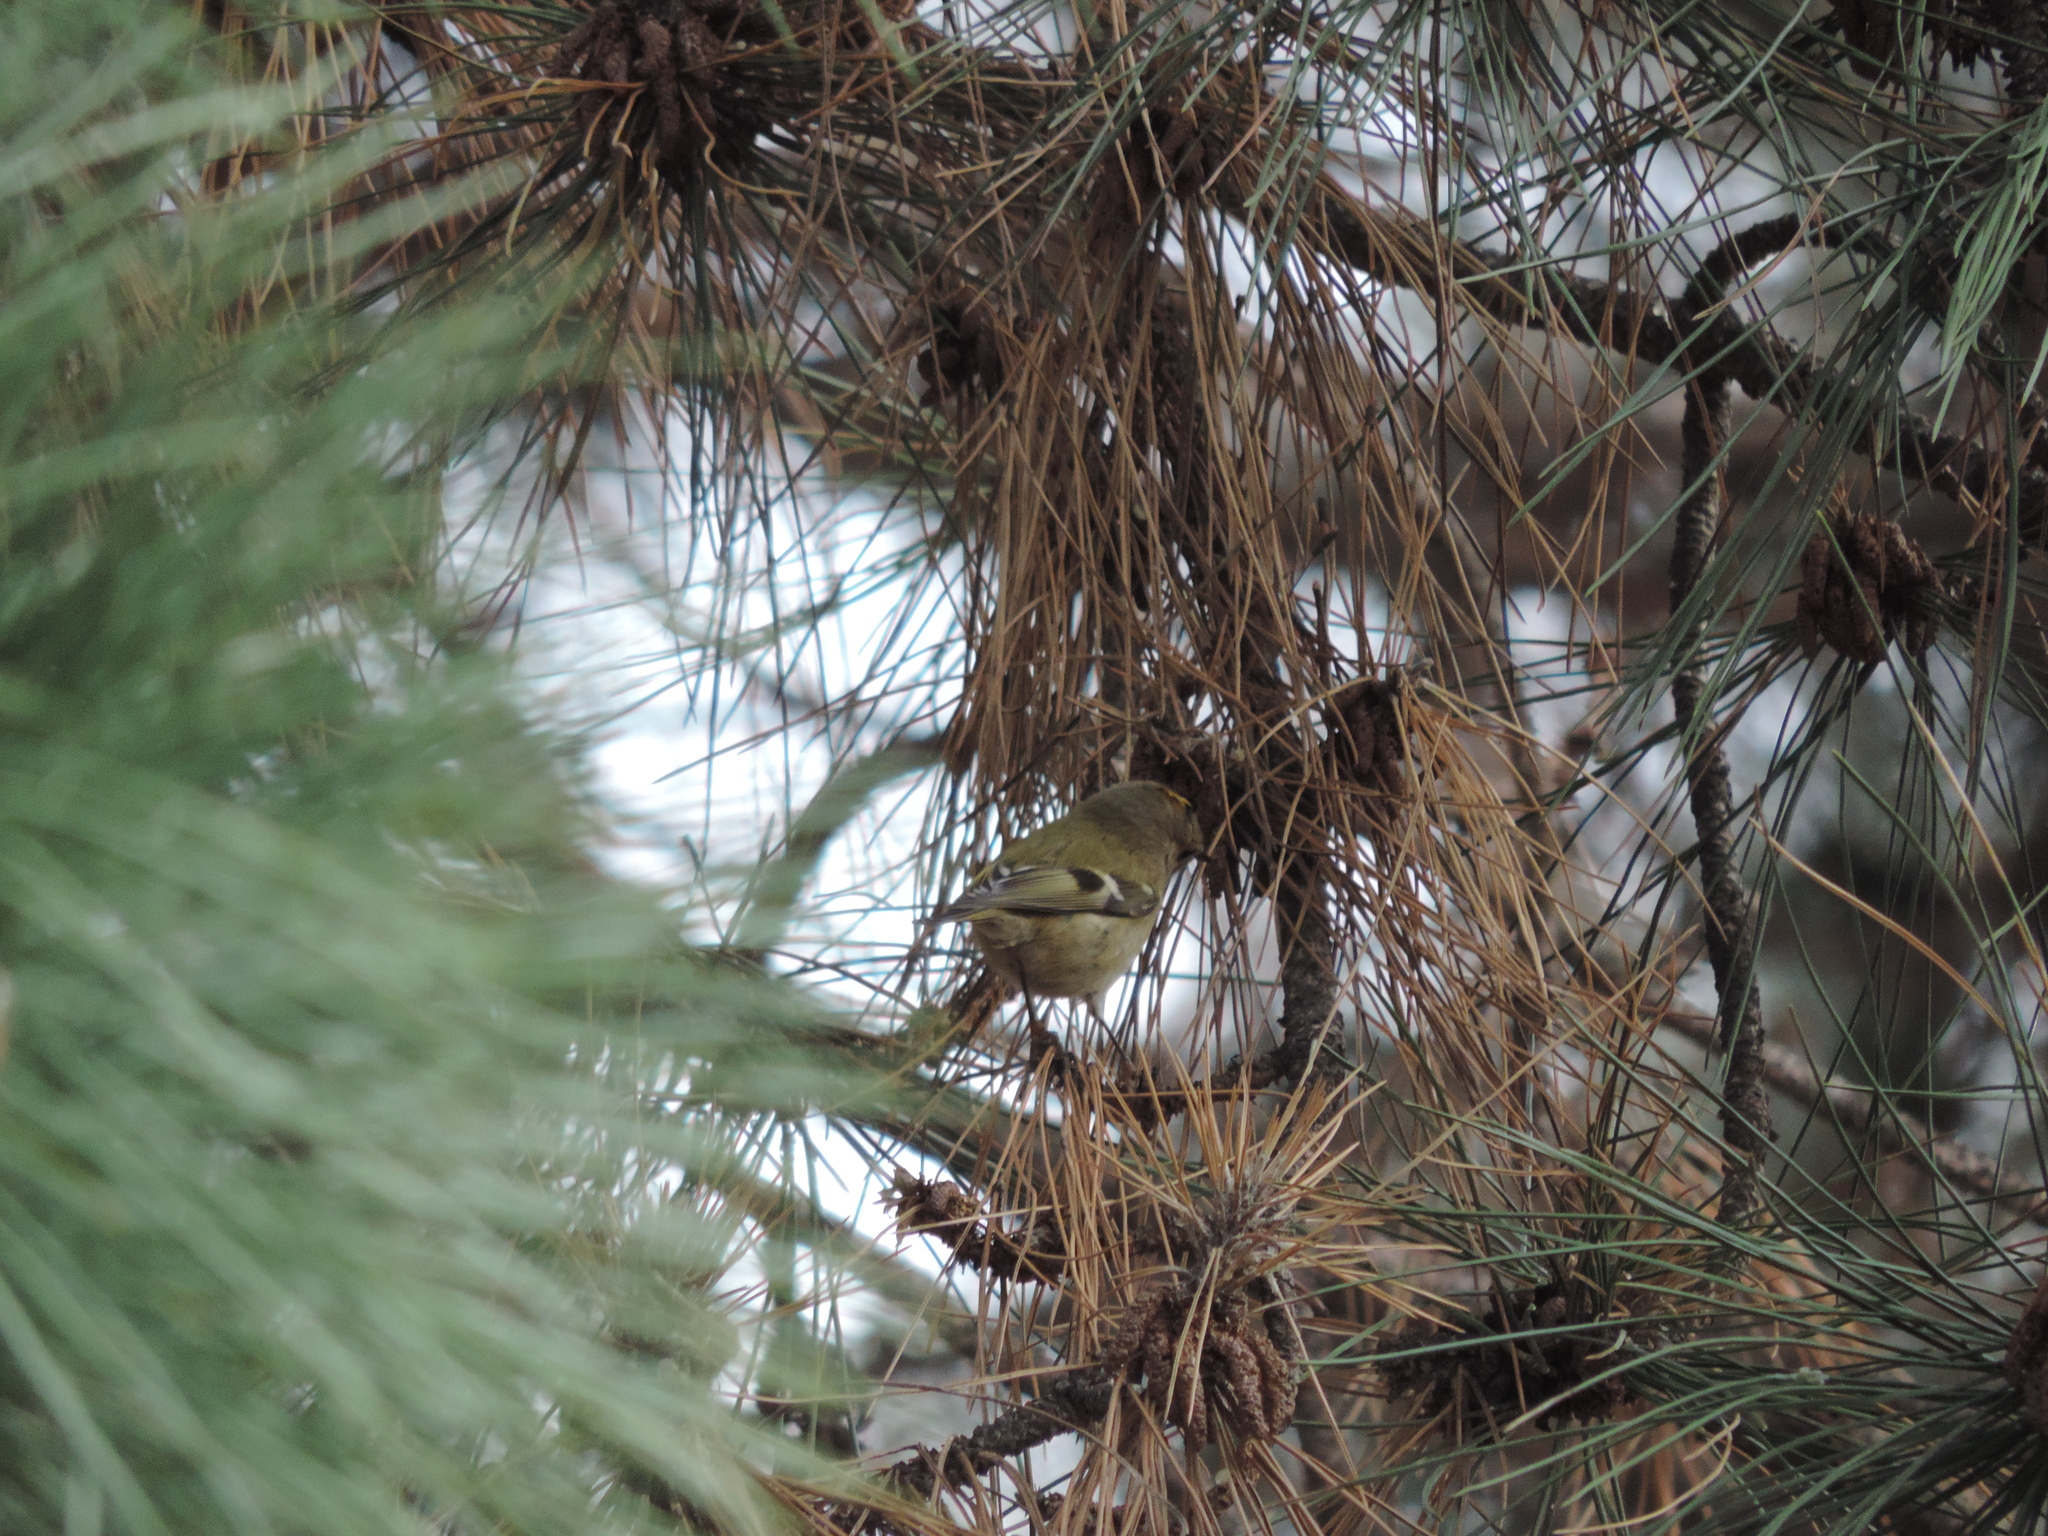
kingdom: Animalia
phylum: Chordata
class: Aves
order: Passeriformes
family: Regulidae
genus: Regulus
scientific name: Regulus regulus
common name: Goldcrest
